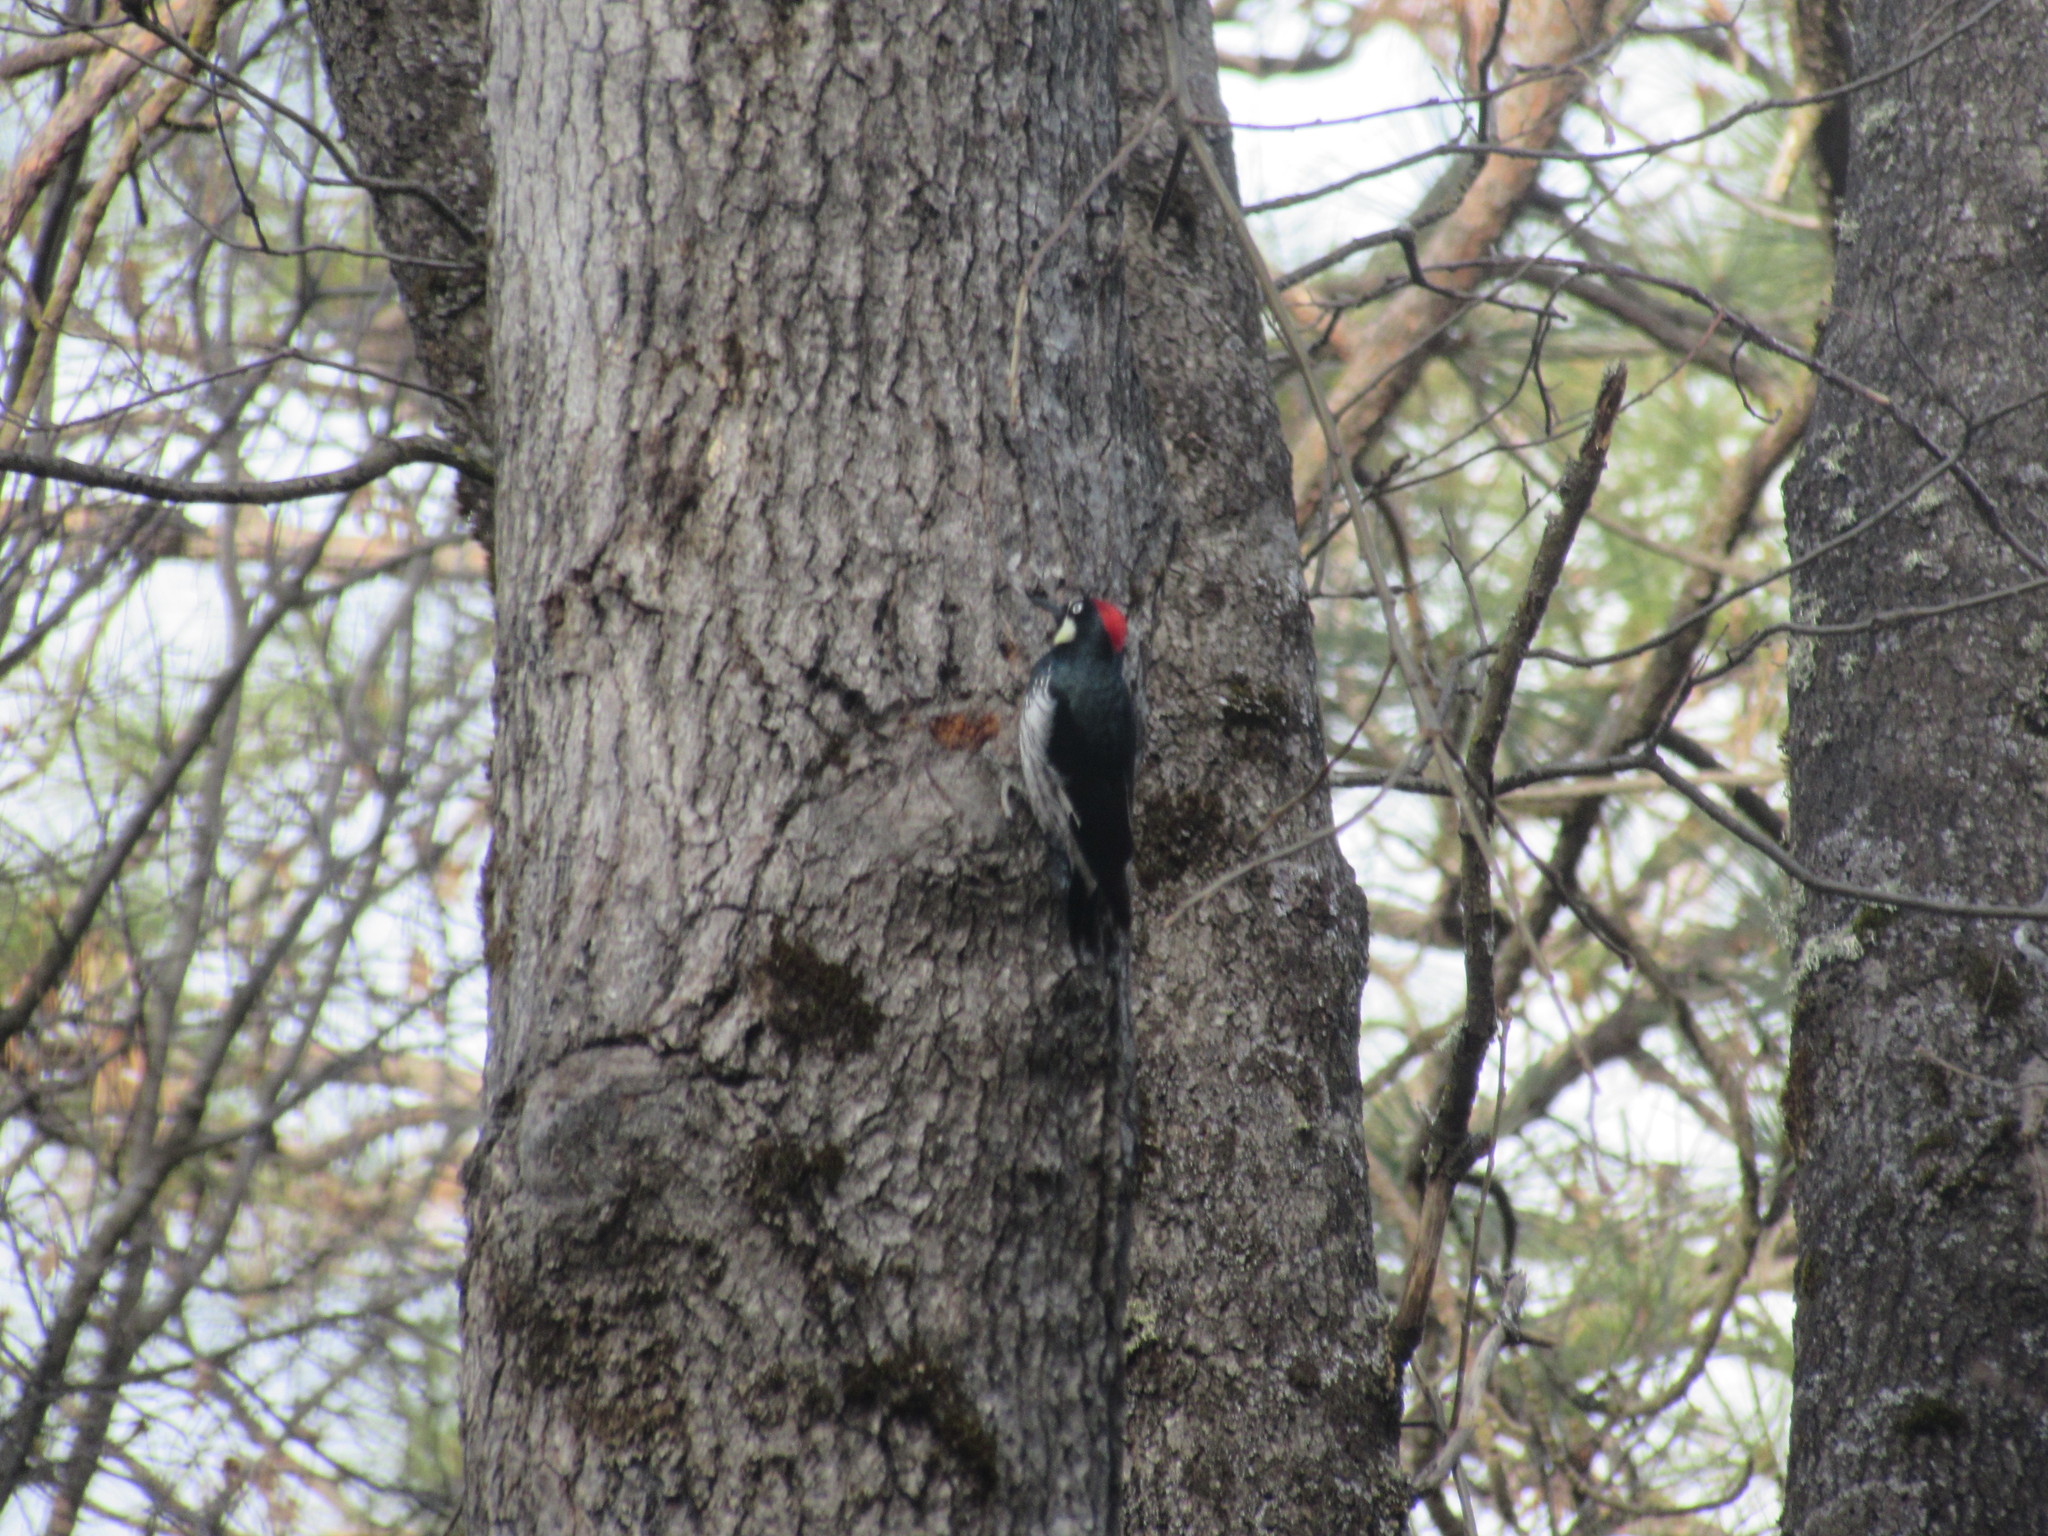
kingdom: Animalia
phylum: Chordata
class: Aves
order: Piciformes
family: Picidae
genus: Melanerpes
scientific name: Melanerpes formicivorus
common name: Acorn woodpecker
